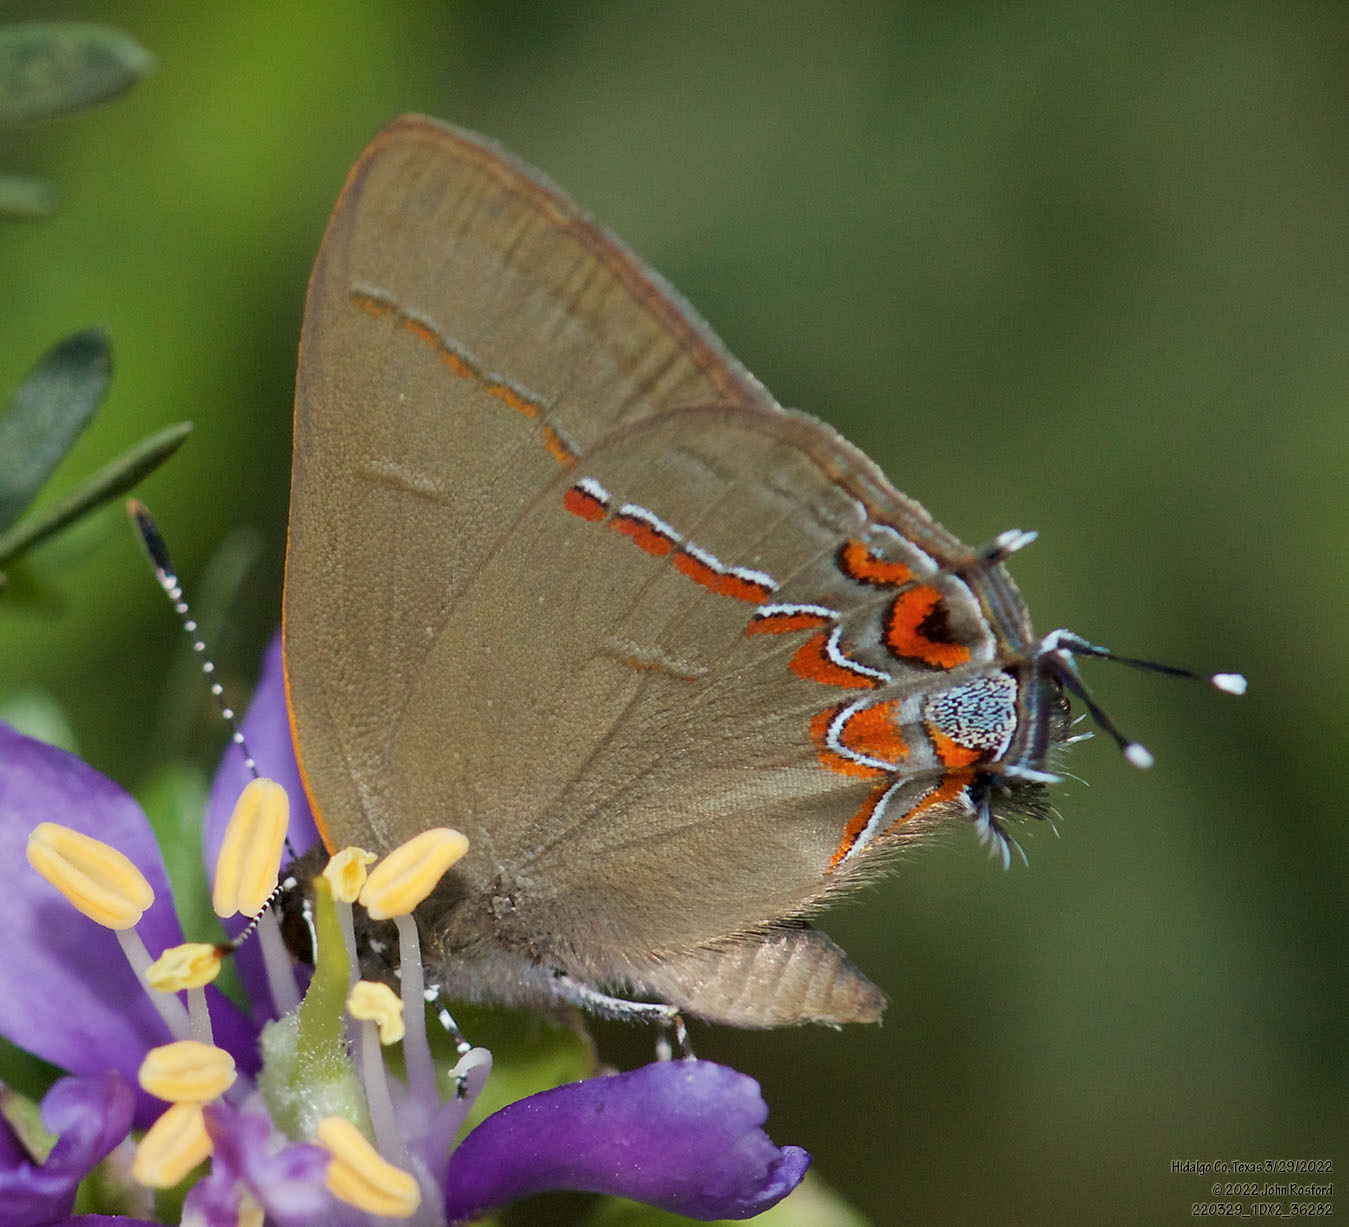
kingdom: Animalia
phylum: Arthropoda
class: Insecta
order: Lepidoptera
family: Lycaenidae
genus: Calycopis
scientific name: Calycopis isobeon
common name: Dusky-blue groundstreak
